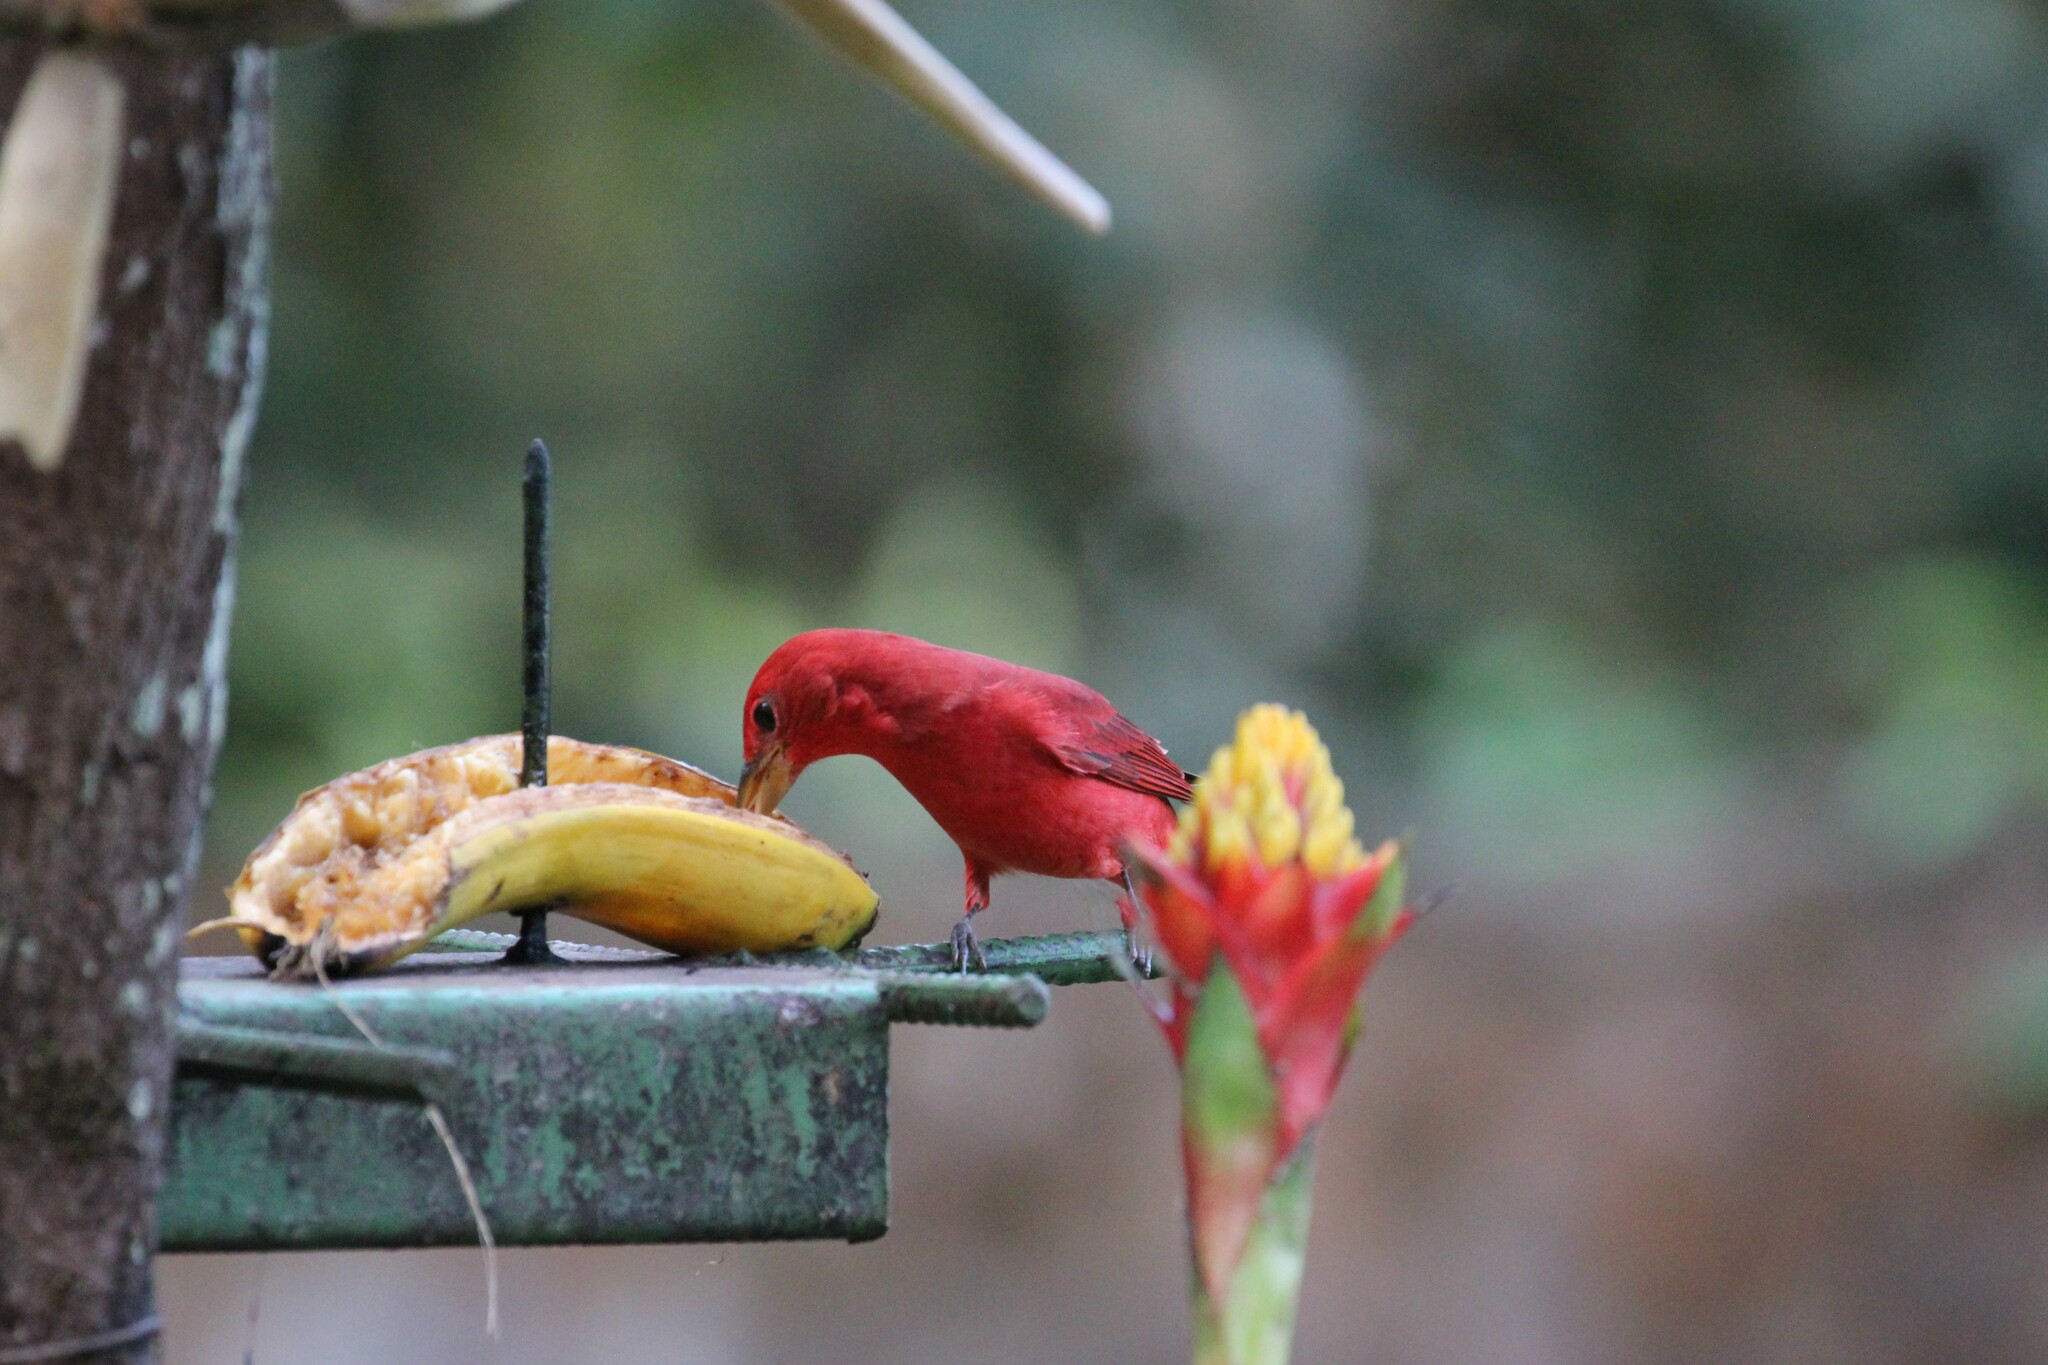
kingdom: Animalia
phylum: Chordata
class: Aves
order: Passeriformes
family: Cardinalidae
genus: Piranga
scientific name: Piranga rubra
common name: Summer tanager
